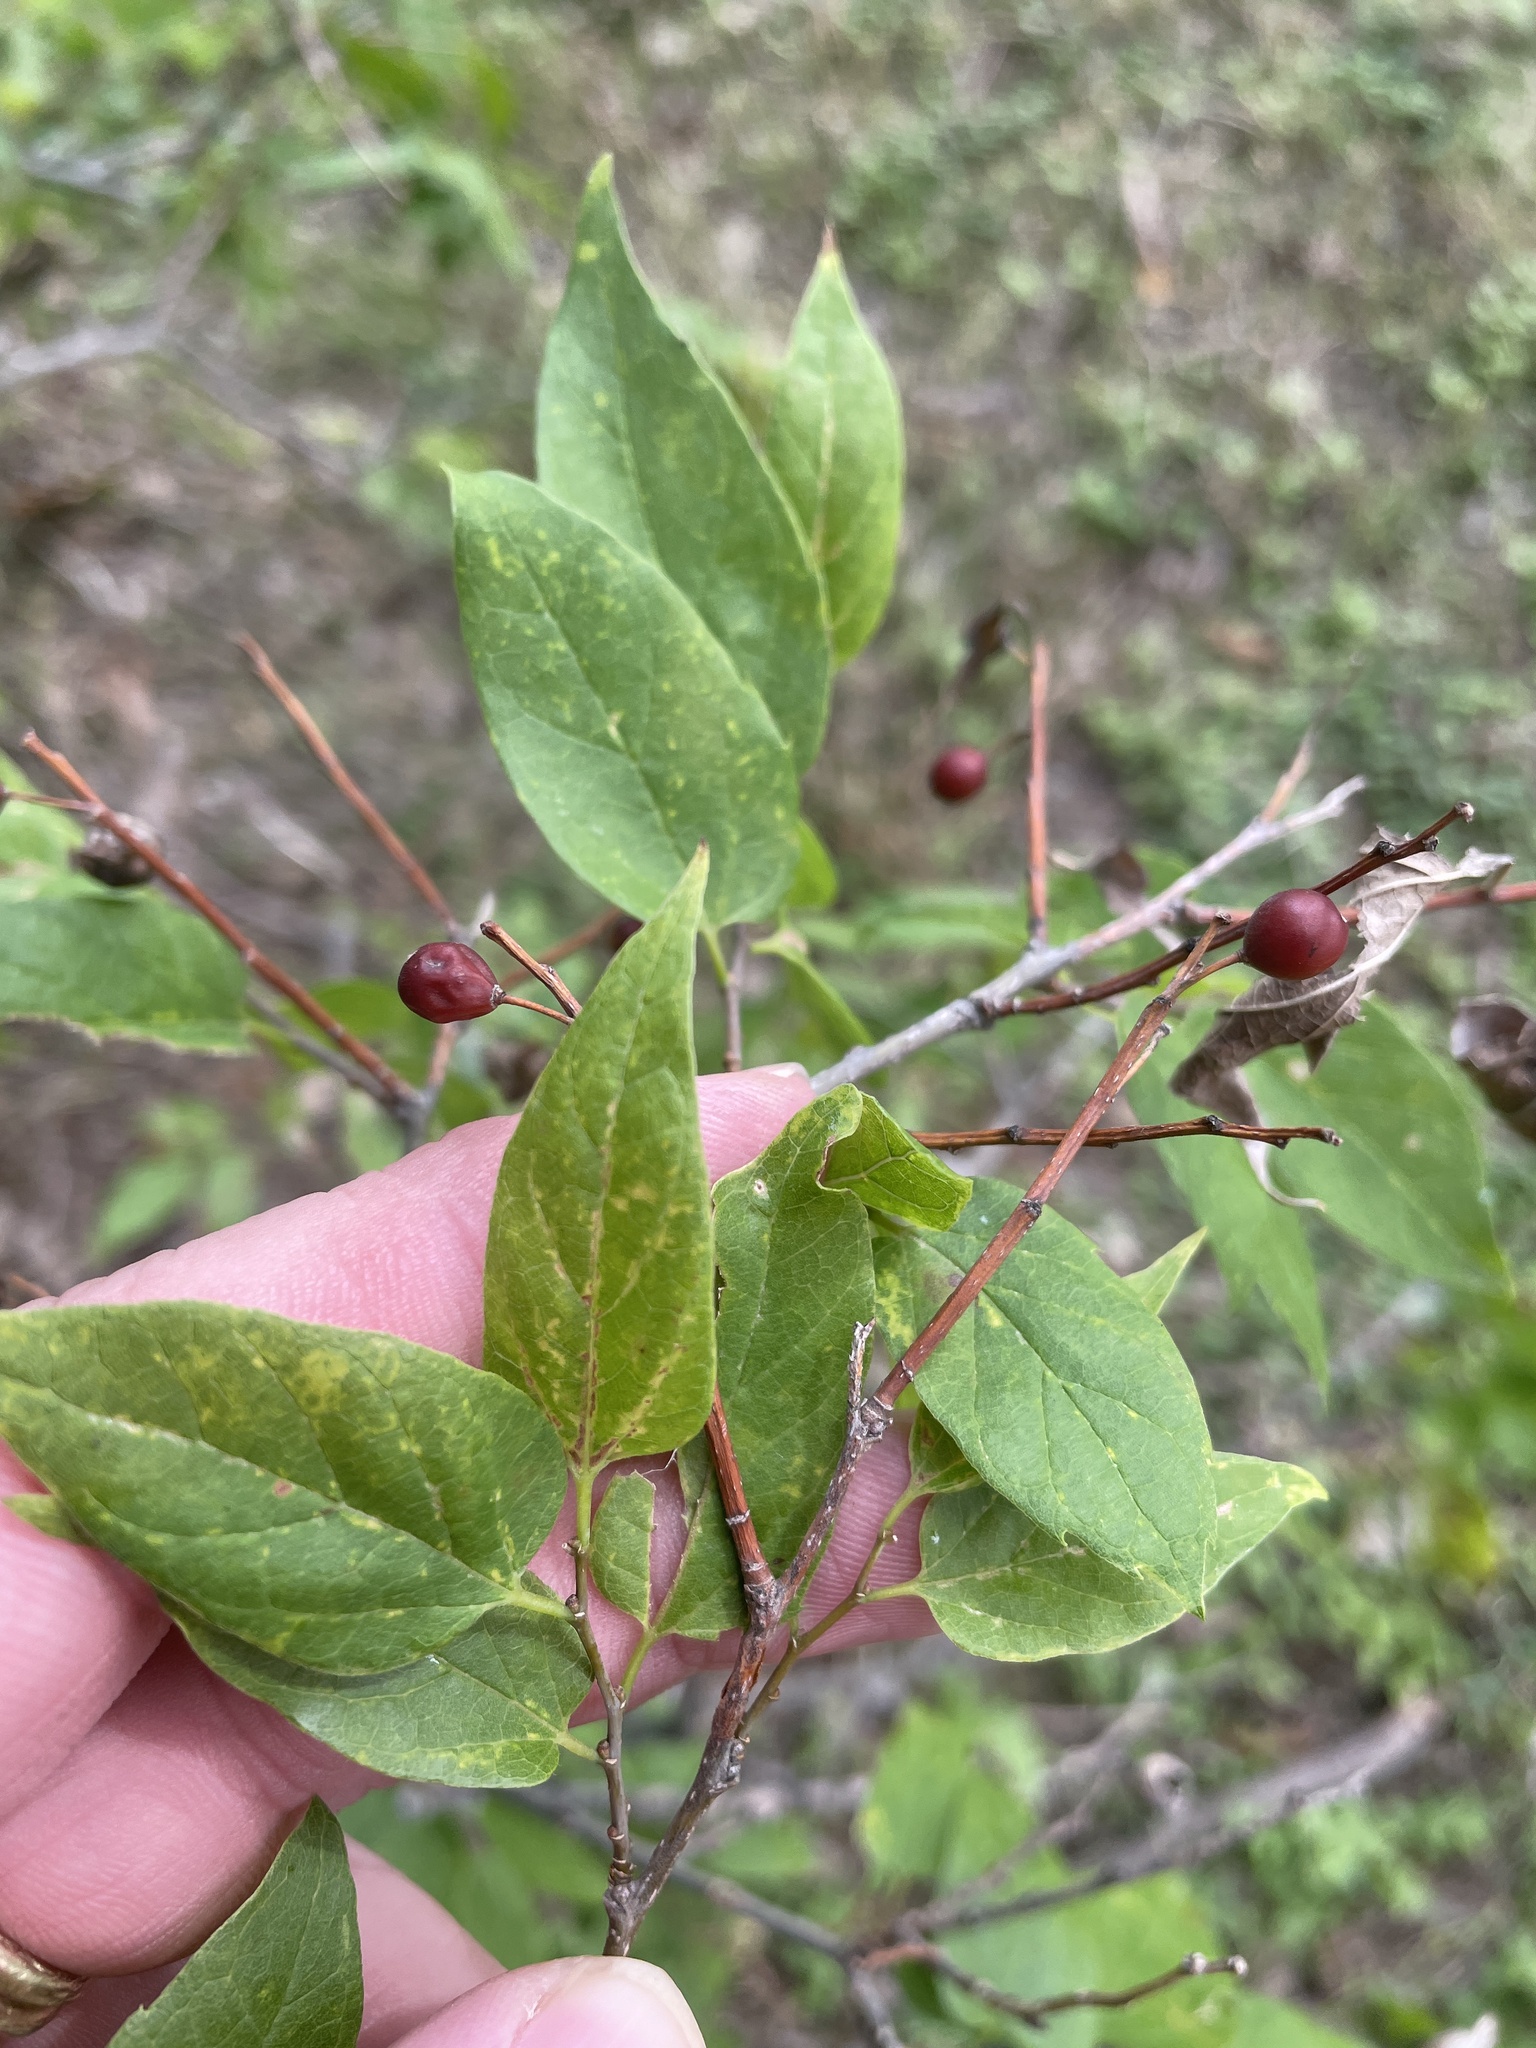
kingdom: Plantae
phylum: Tracheophyta
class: Magnoliopsida
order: Rosales
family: Cannabaceae
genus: Celtis
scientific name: Celtis laevigata
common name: Sugarberry
